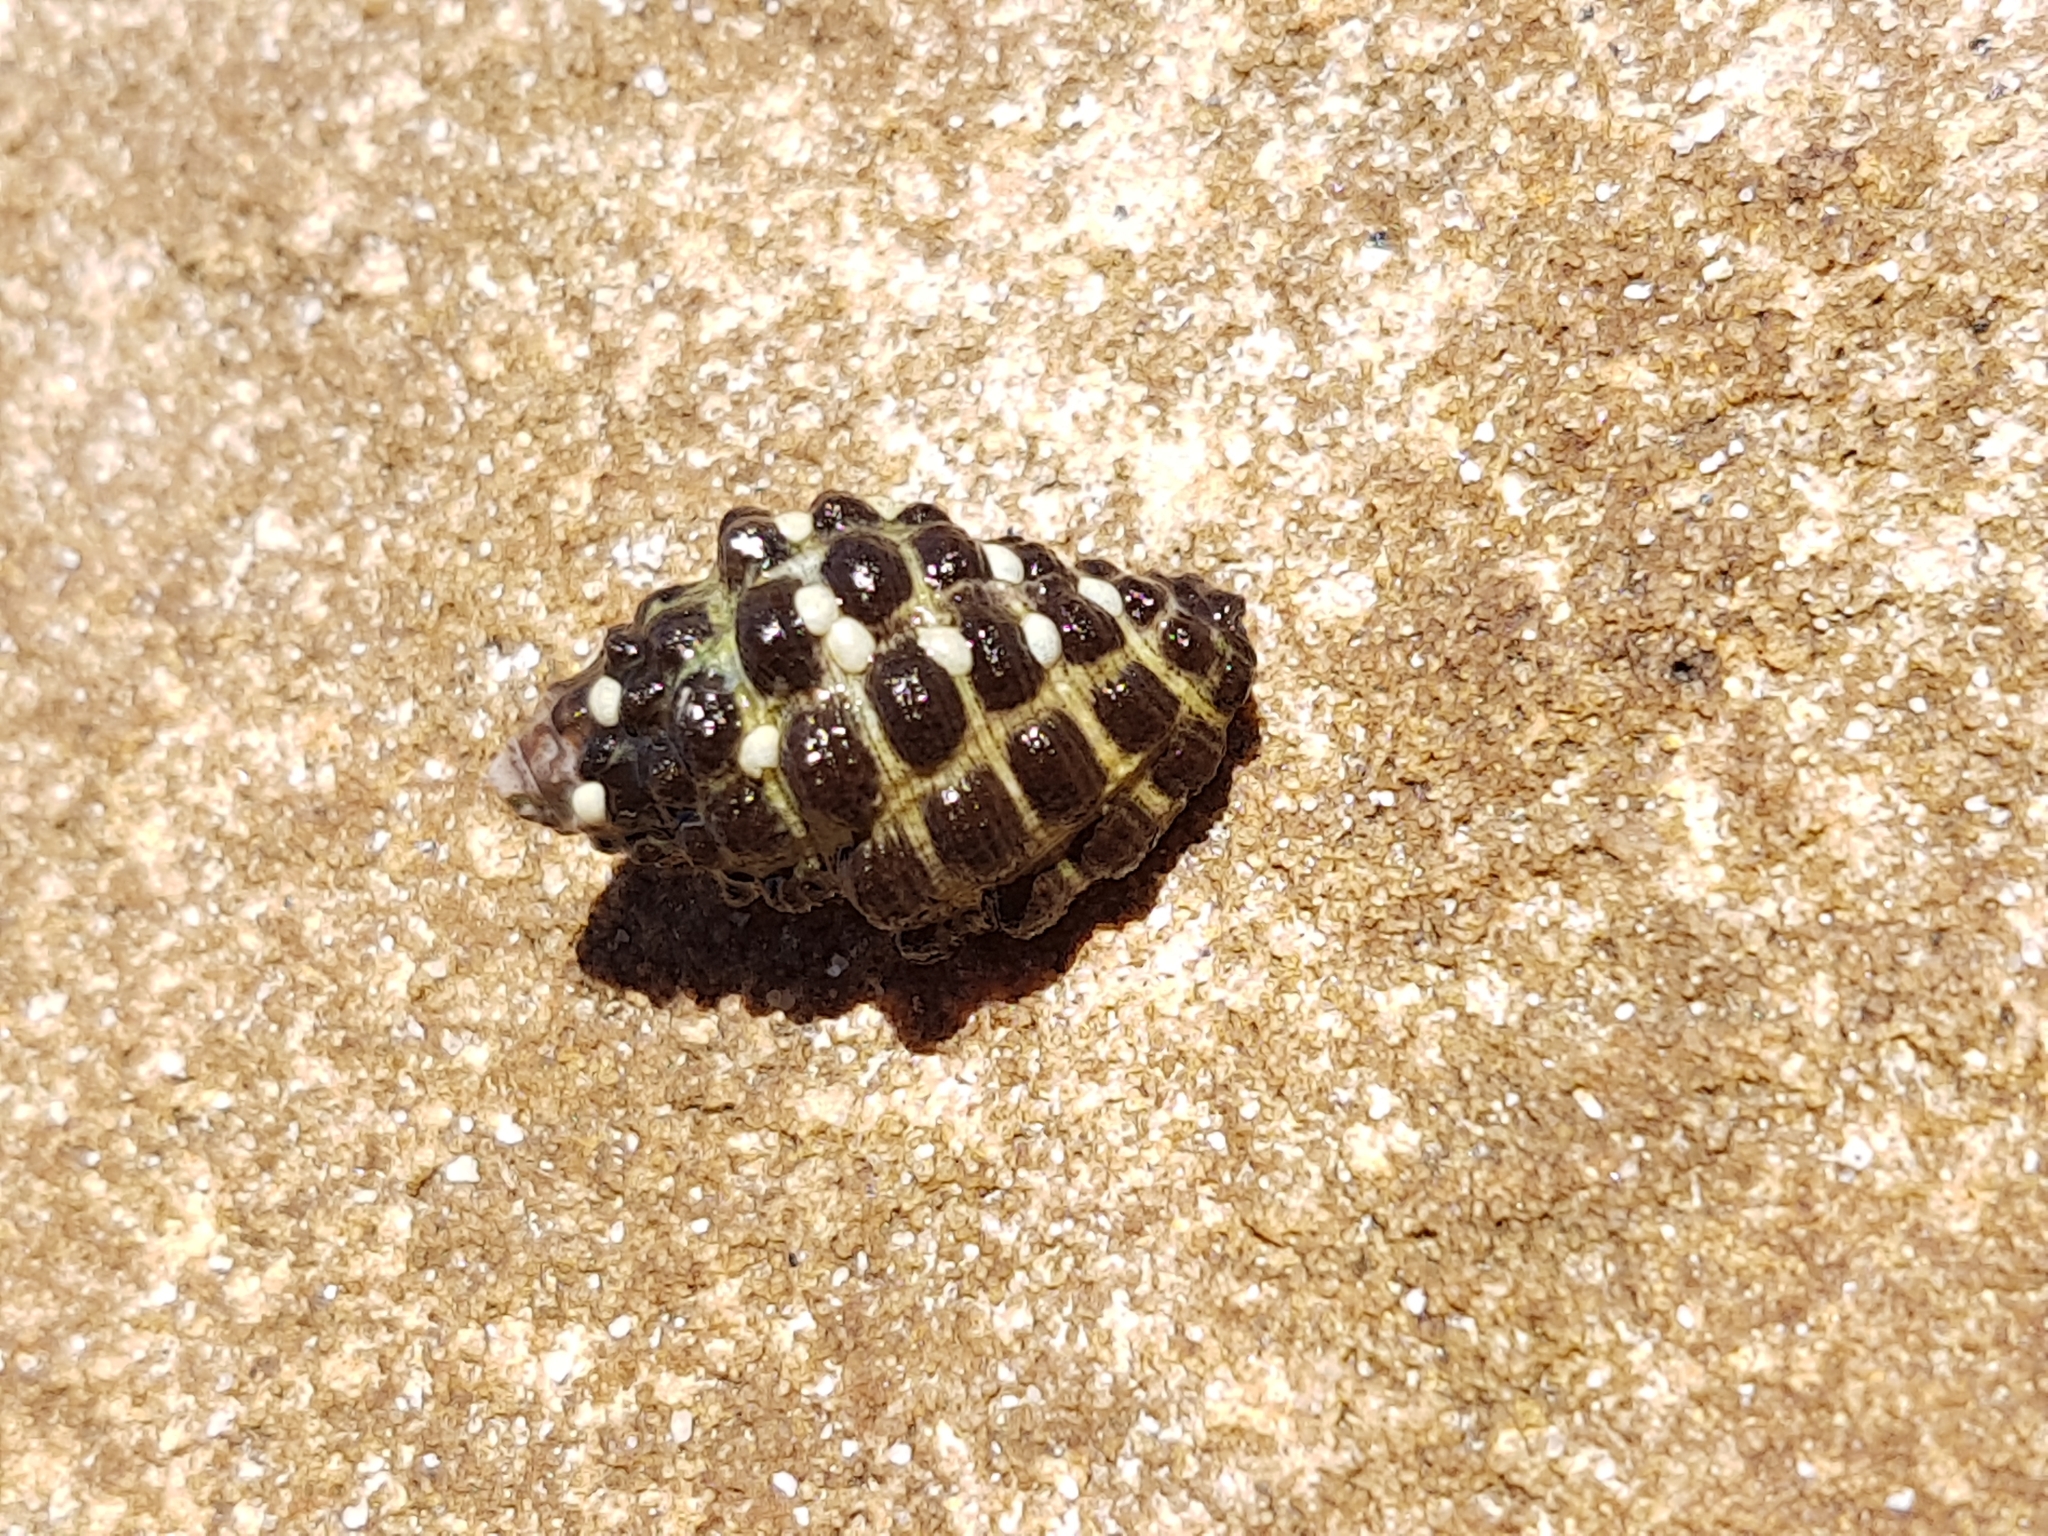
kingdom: Animalia
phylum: Mollusca
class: Gastropoda
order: Neogastropoda
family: Muricidae
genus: Tenguella
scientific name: Tenguella marginalba
